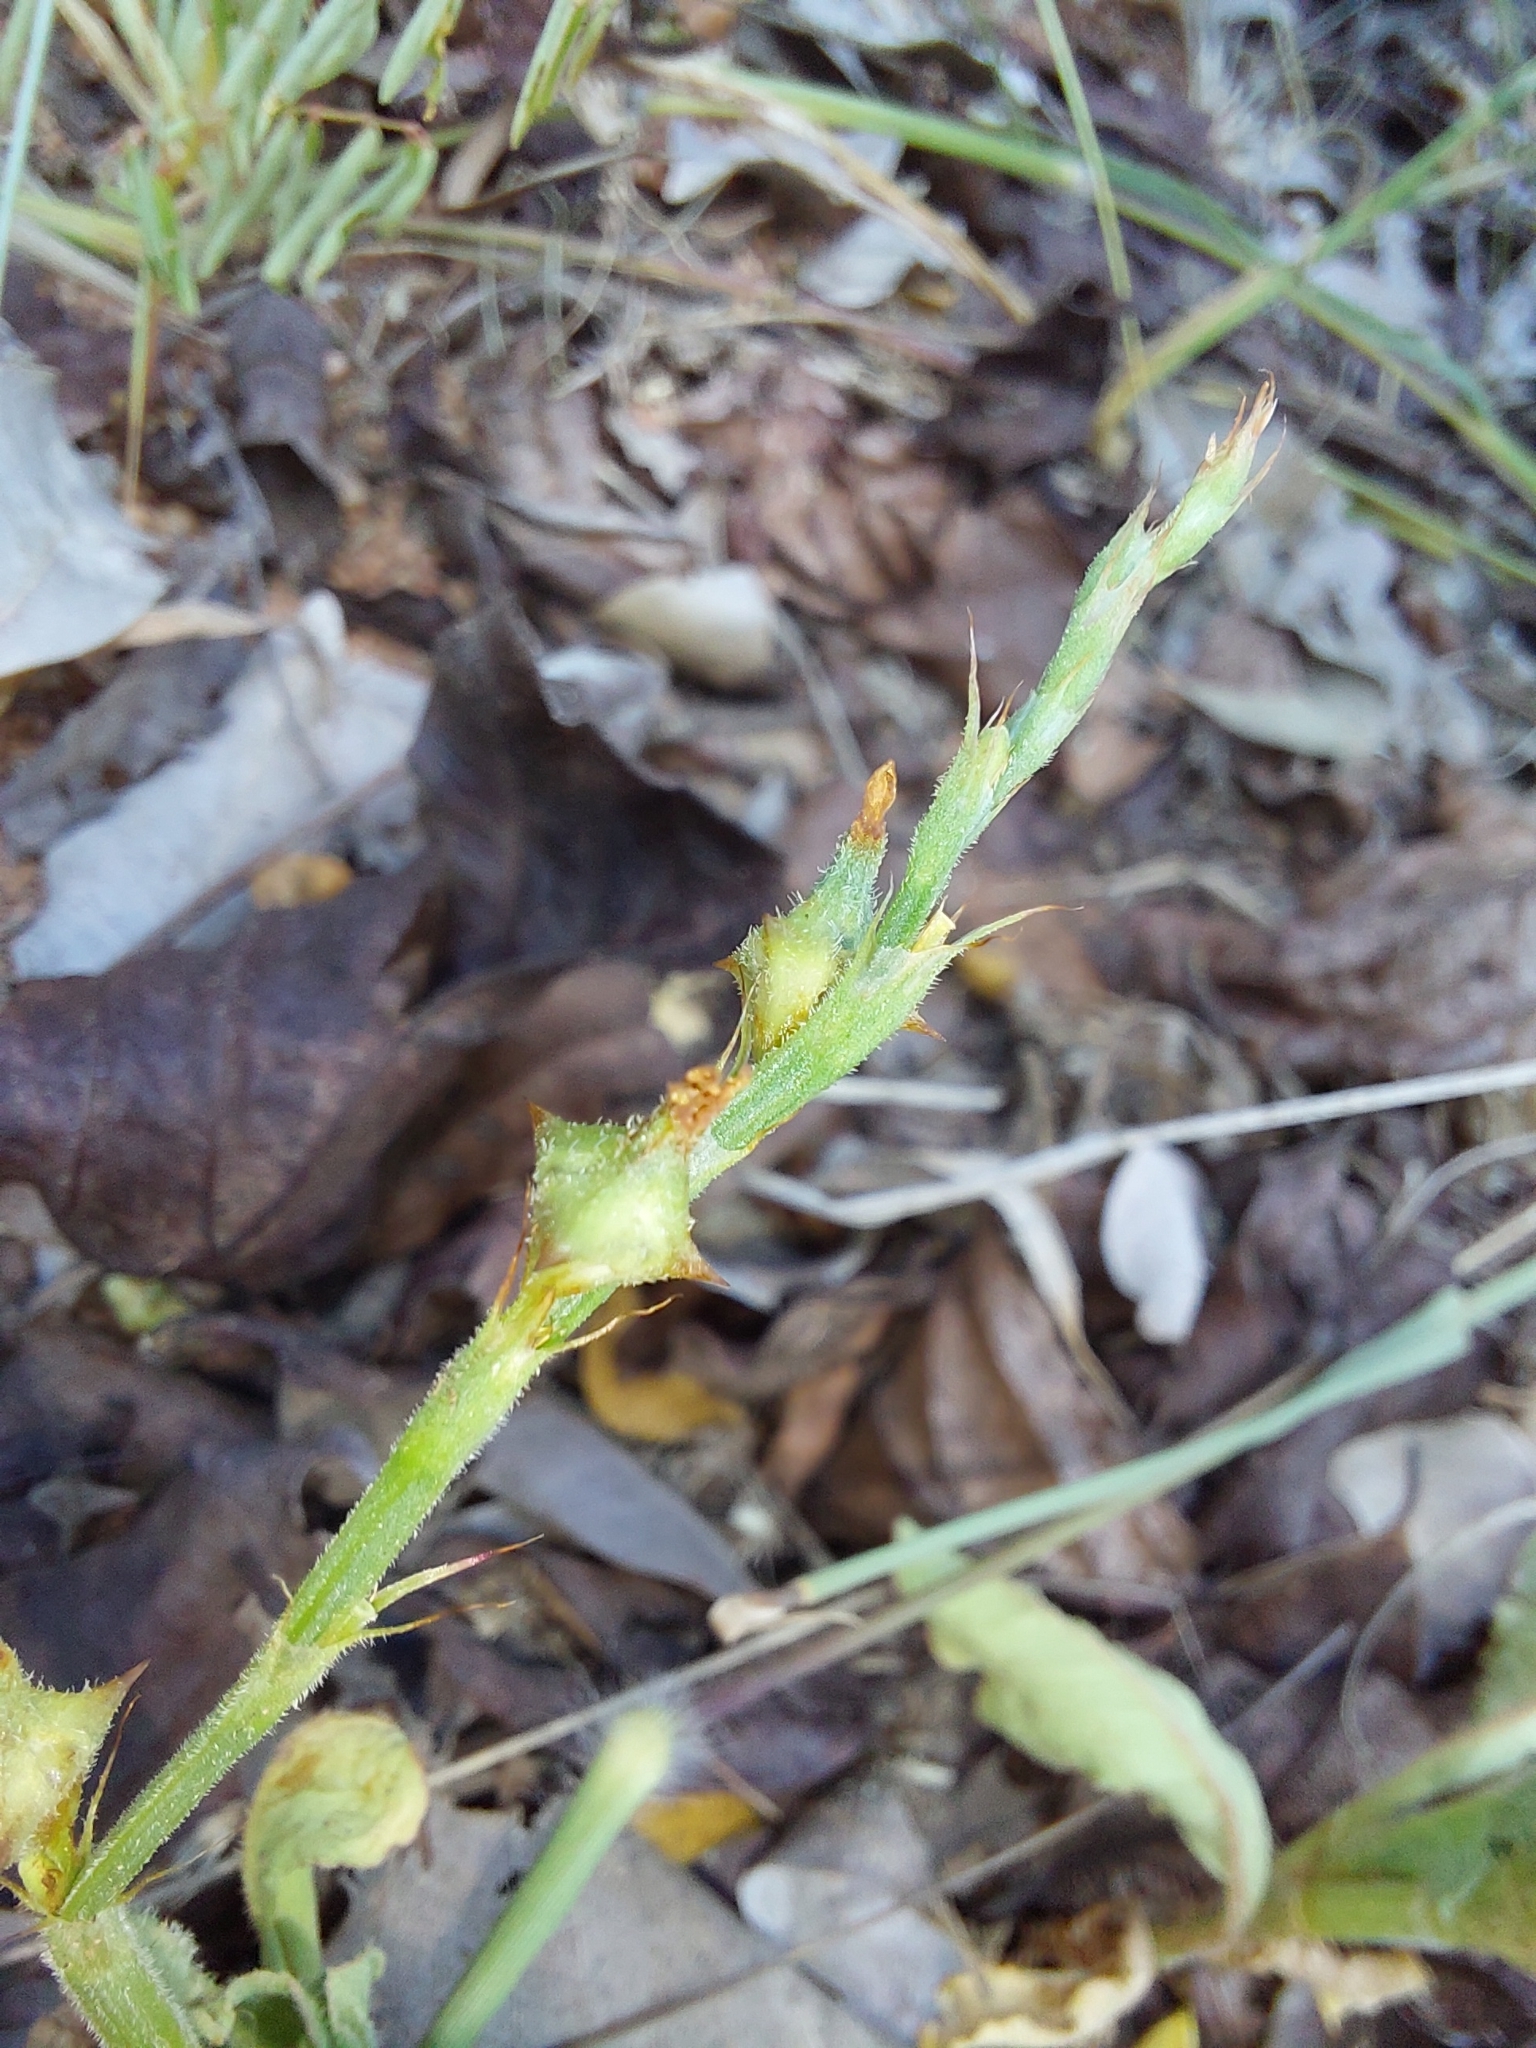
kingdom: Plantae
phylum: Tracheophyta
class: Magnoliopsida
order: Caryophyllales
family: Polygonaceae
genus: Oxygonum
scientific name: Oxygonum sinuatum
